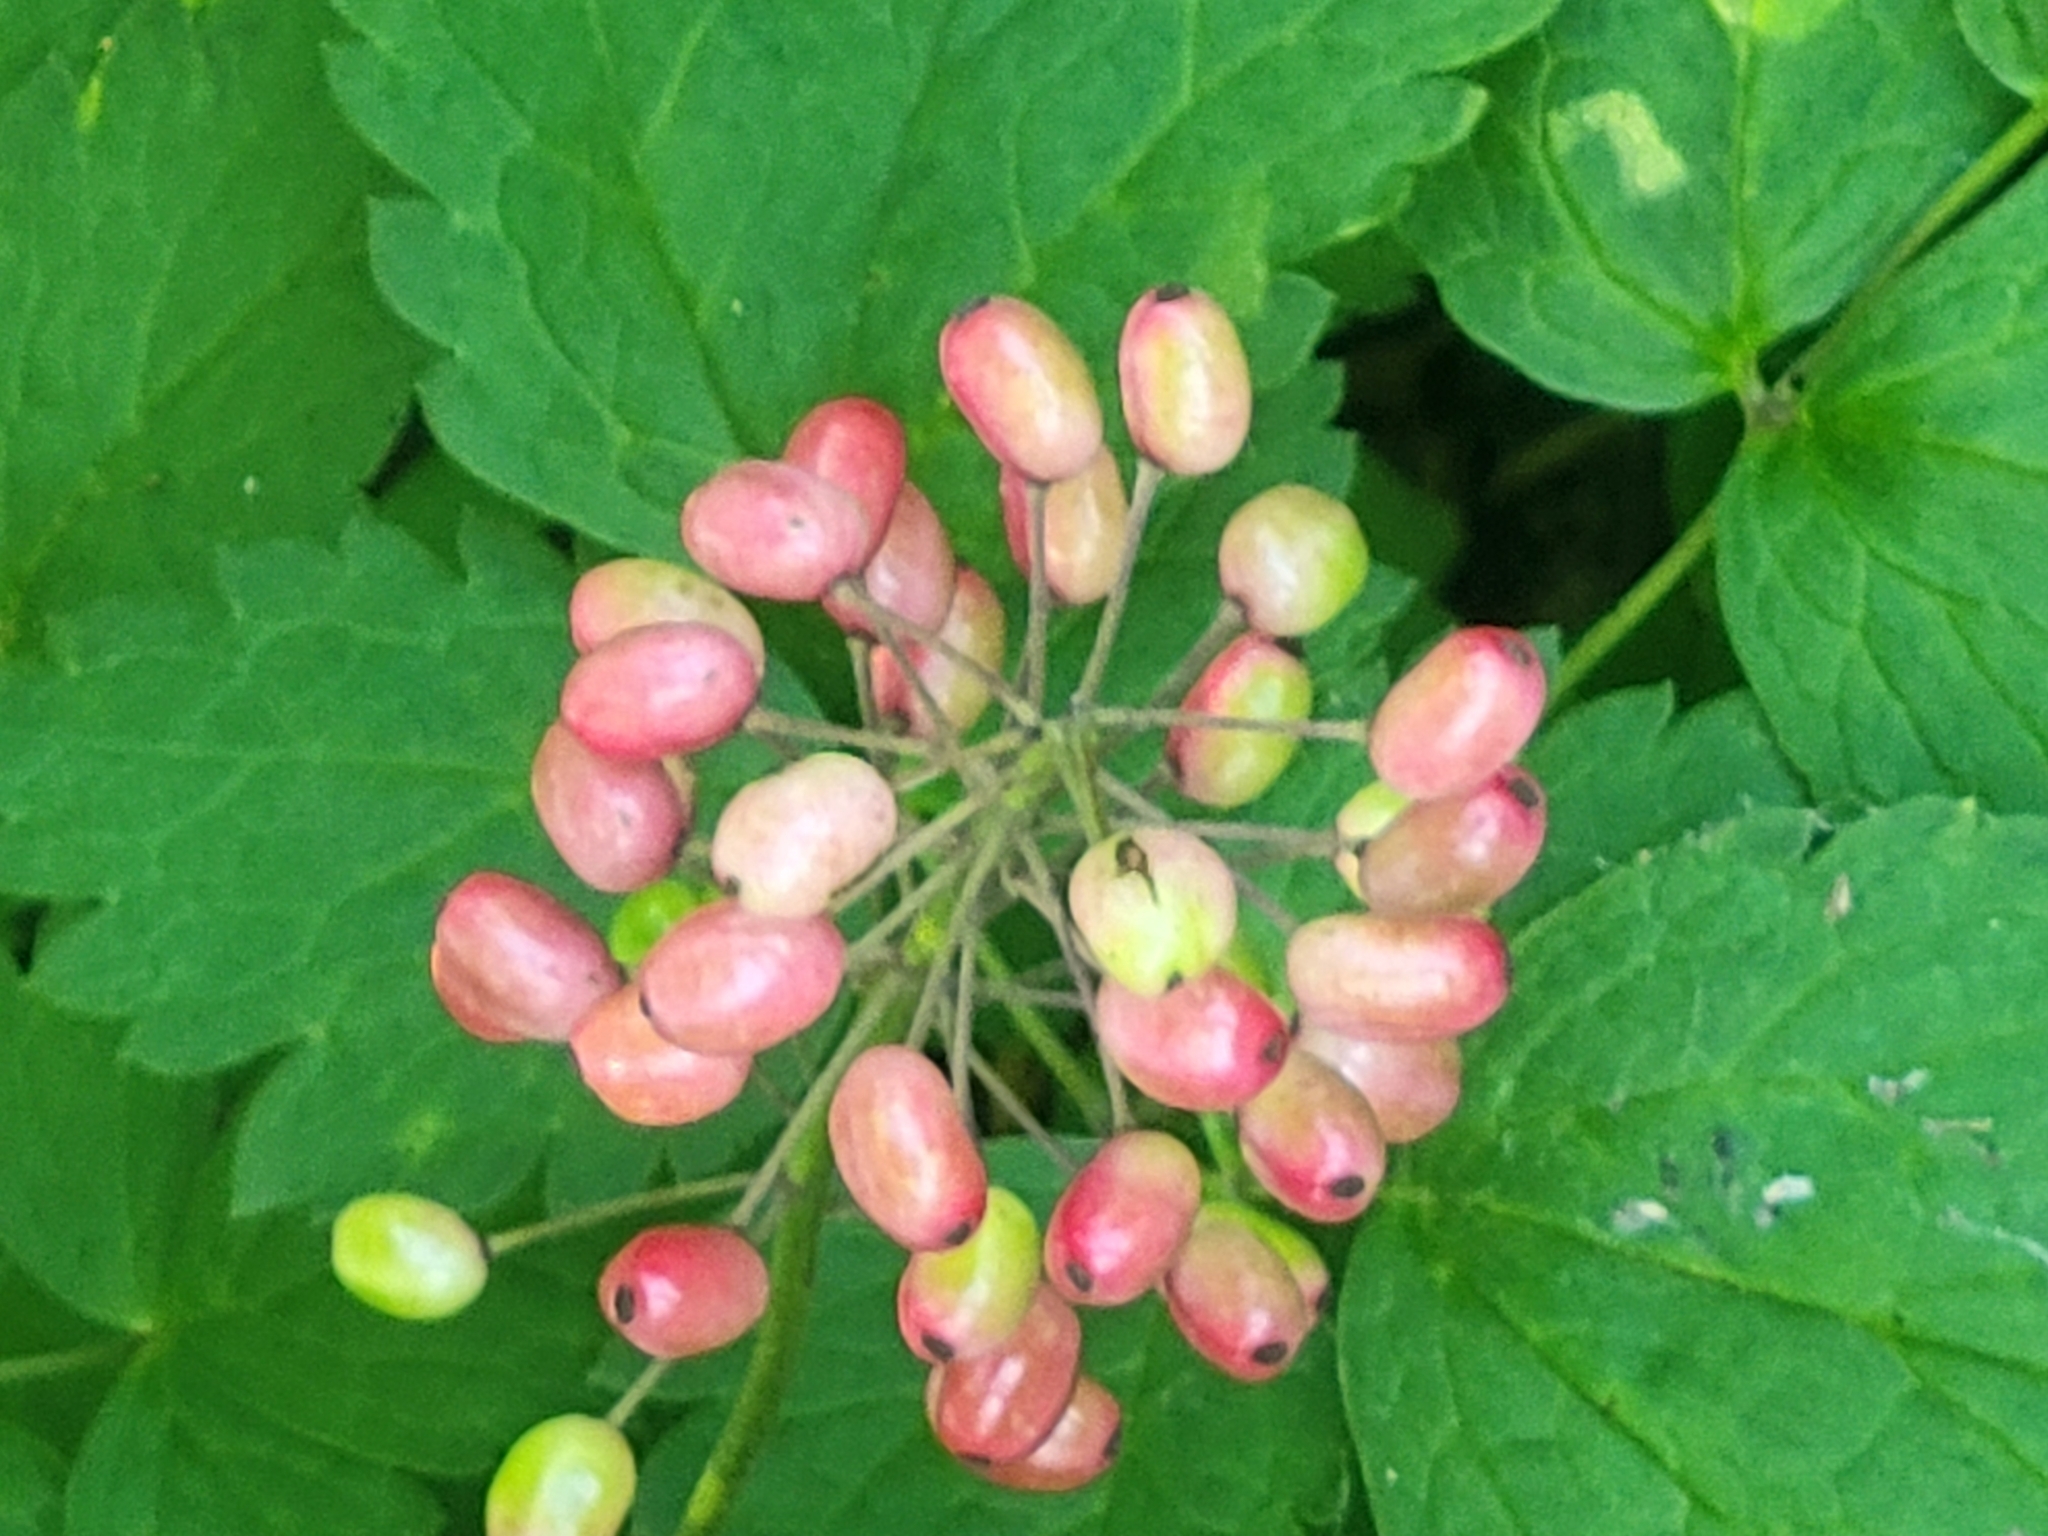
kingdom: Plantae
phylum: Tracheophyta
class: Magnoliopsida
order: Ranunculales
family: Ranunculaceae
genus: Actaea
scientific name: Actaea rubra
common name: Red baneberry
